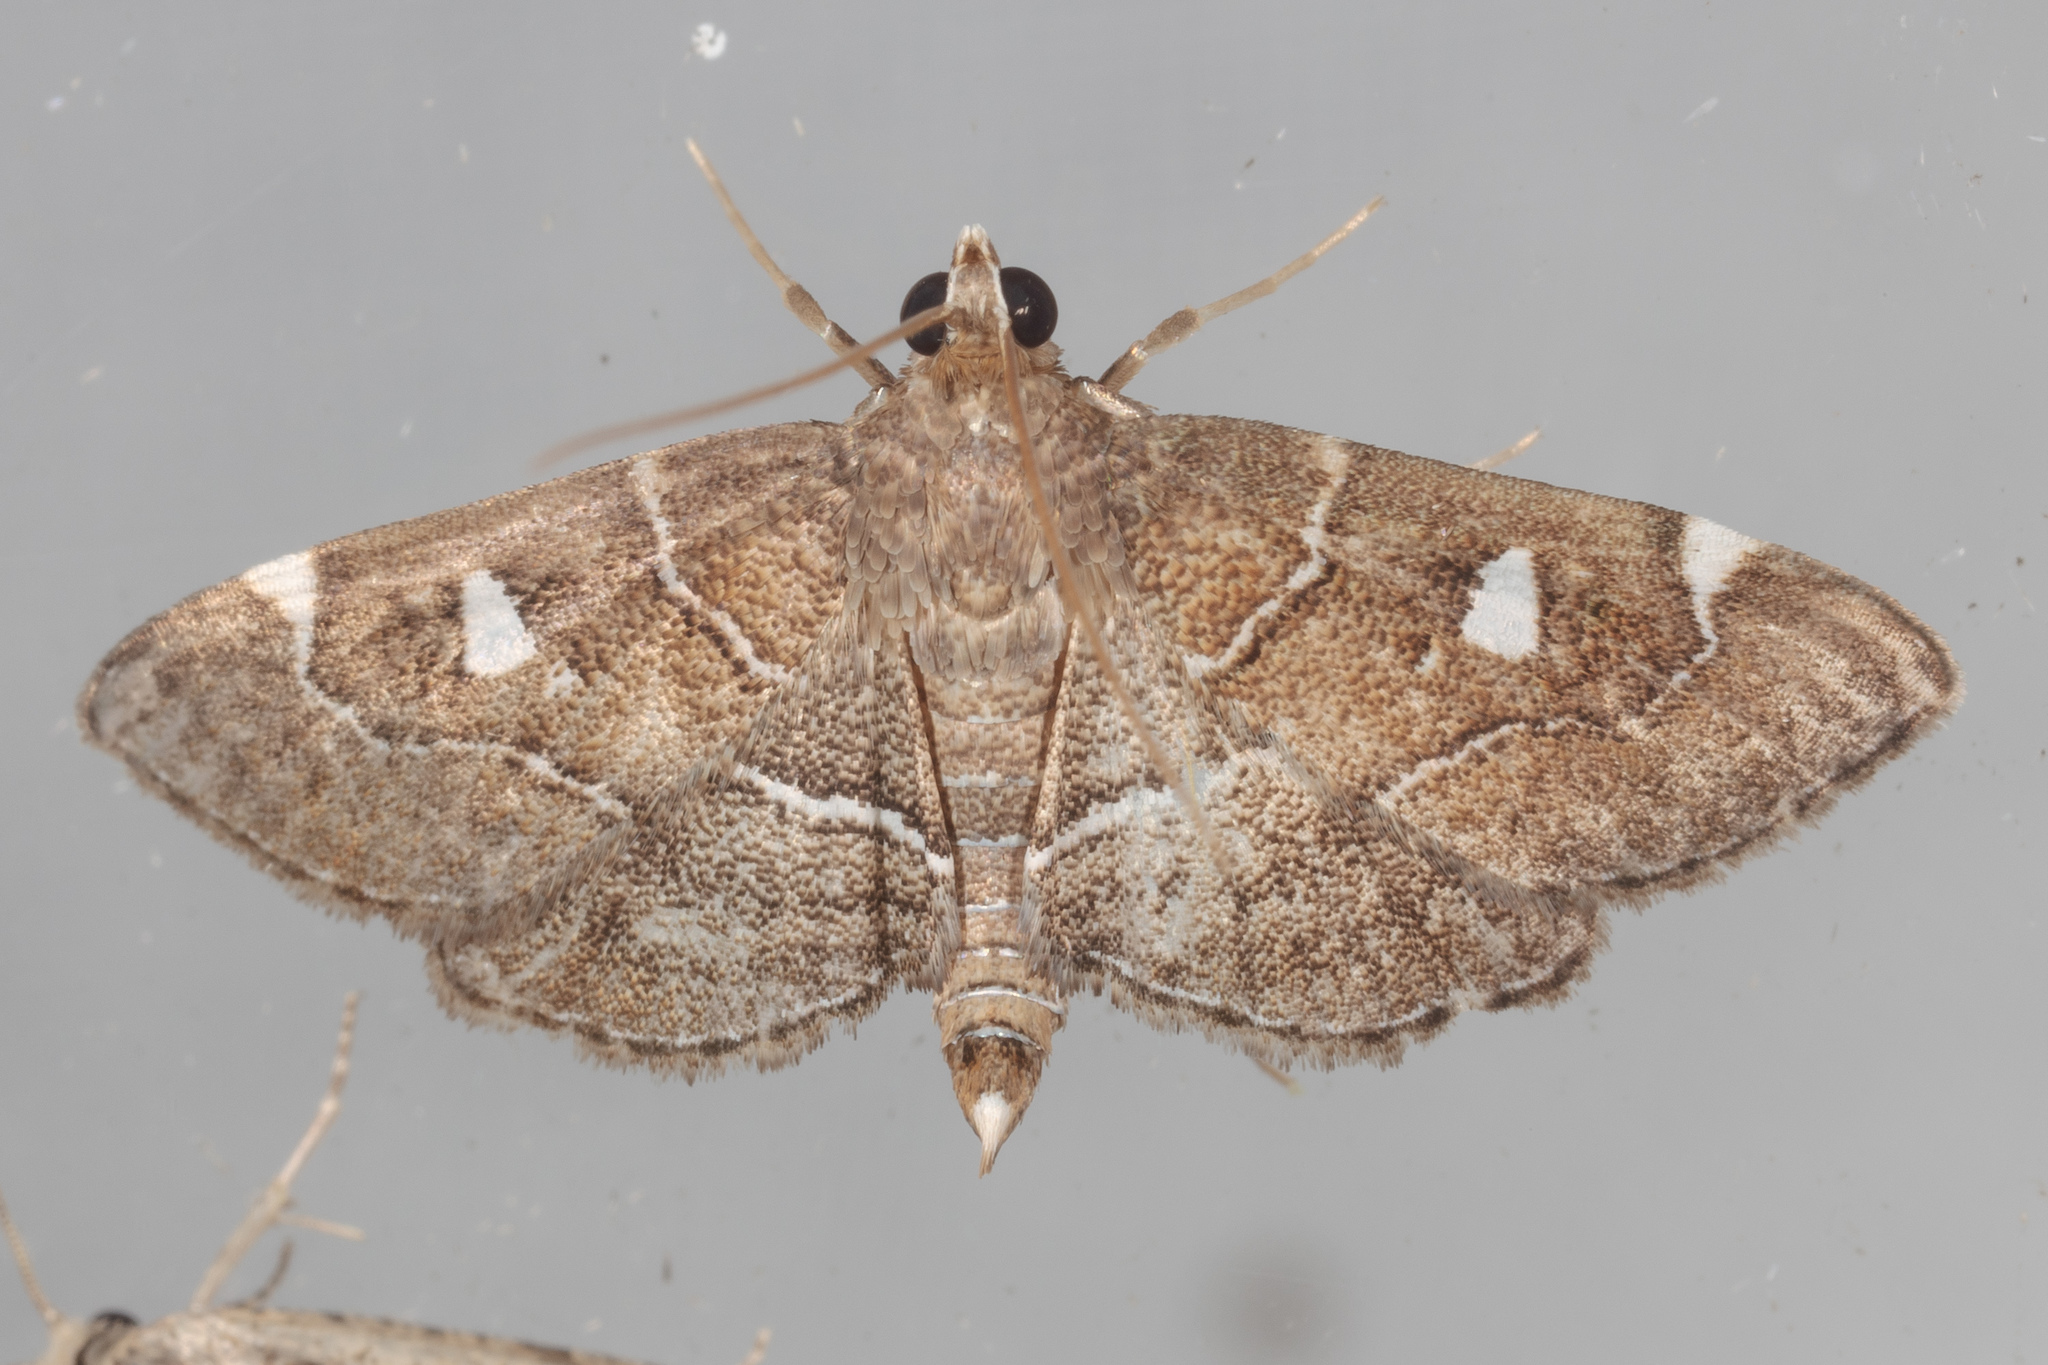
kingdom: Animalia
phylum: Arthropoda
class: Insecta
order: Lepidoptera
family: Crambidae
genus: Lamprosema
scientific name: Lamprosema victoriae
